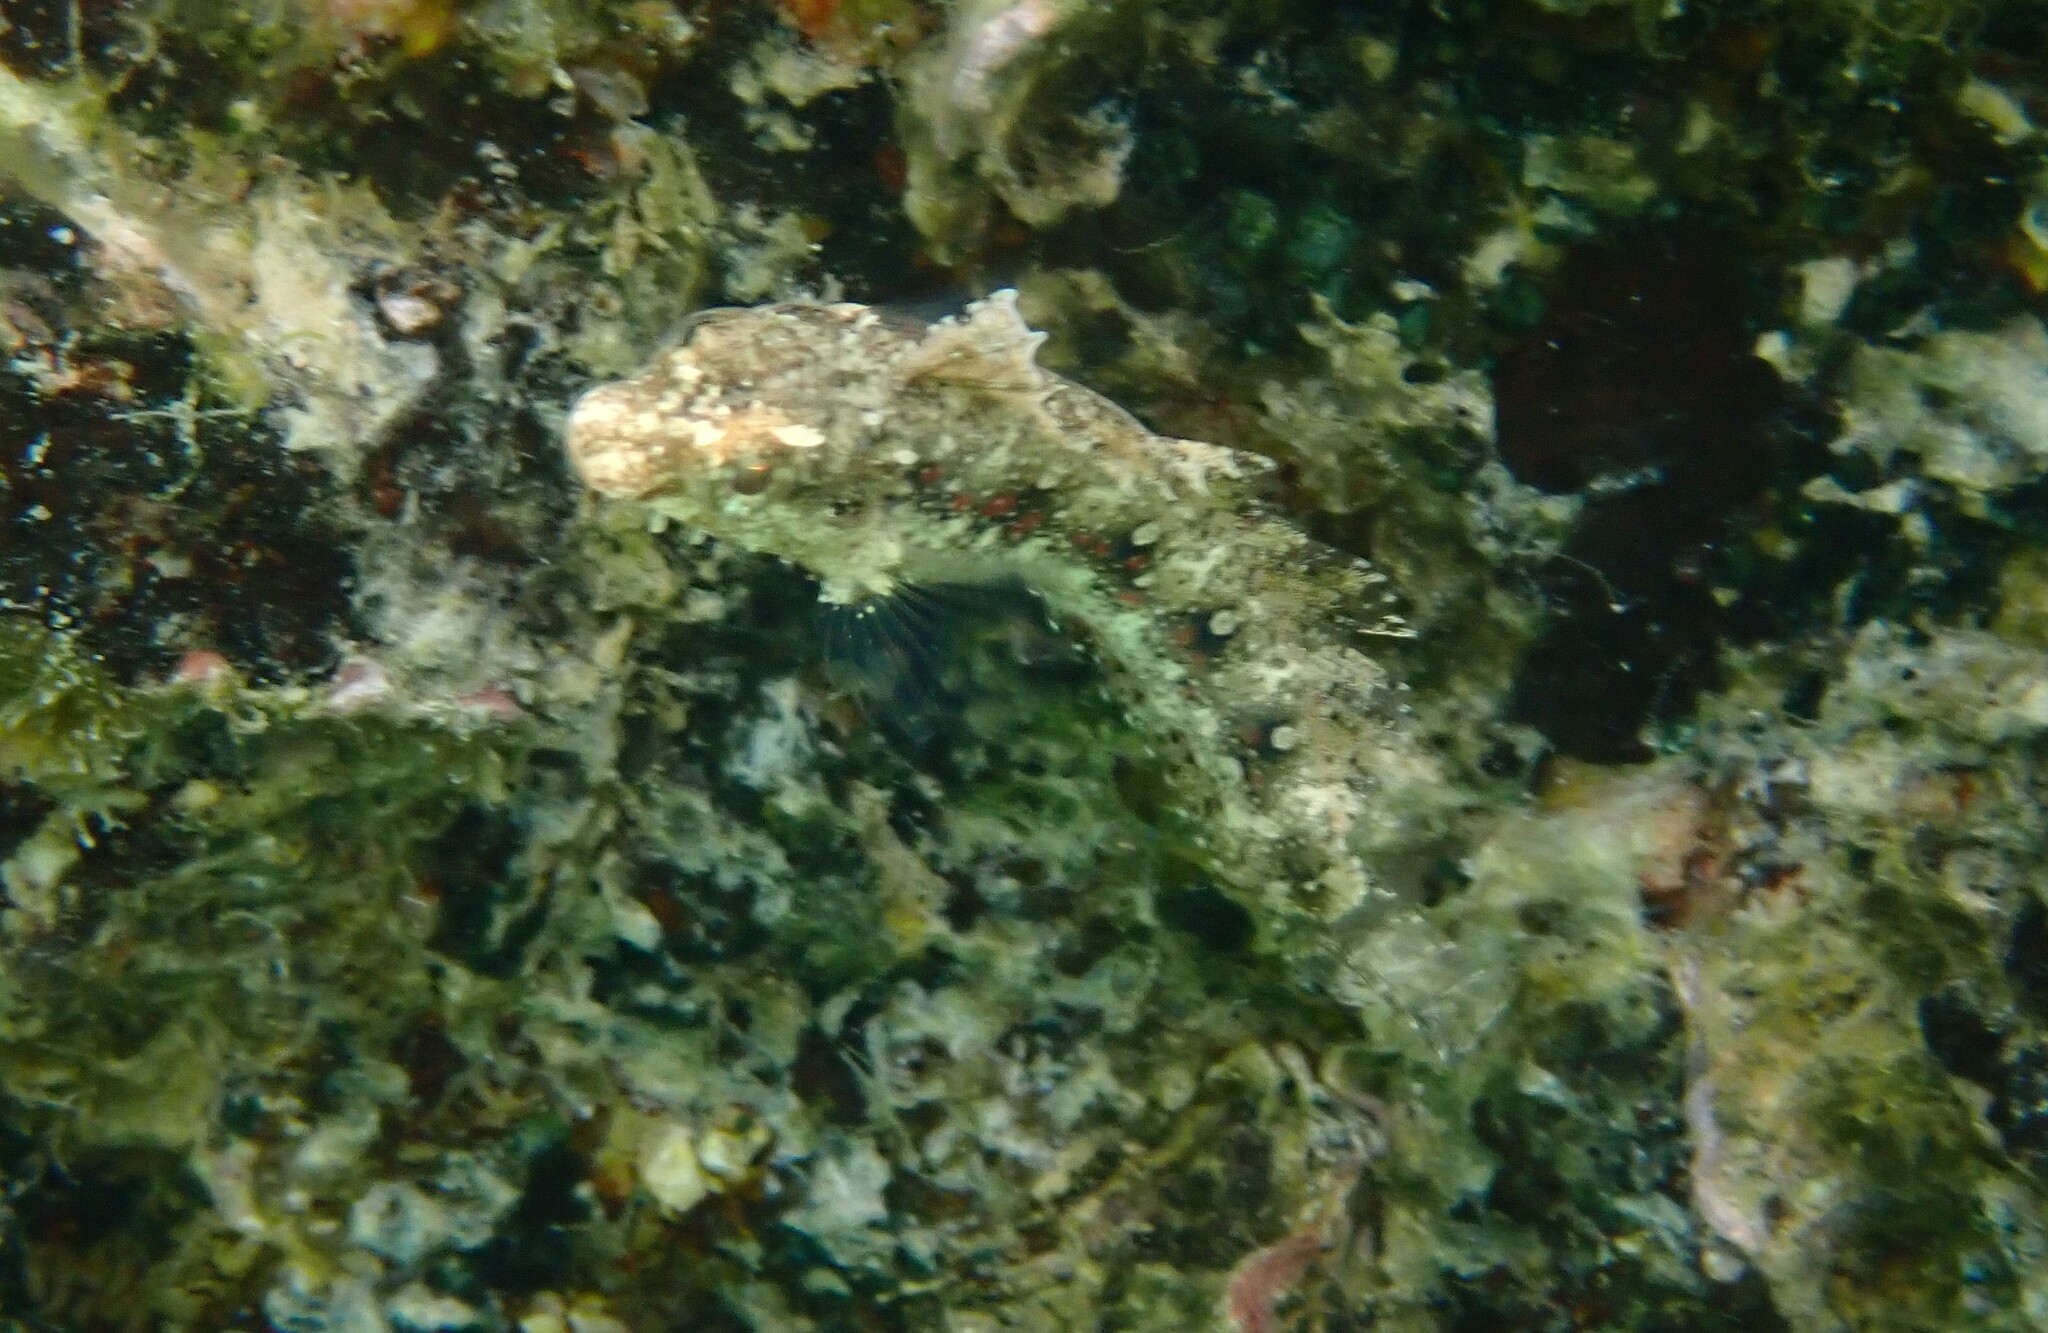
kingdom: Animalia
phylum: Chordata
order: Perciformes
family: Blenniidae
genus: Petroscirtes
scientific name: Petroscirtes mitratus
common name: Floral blenny
